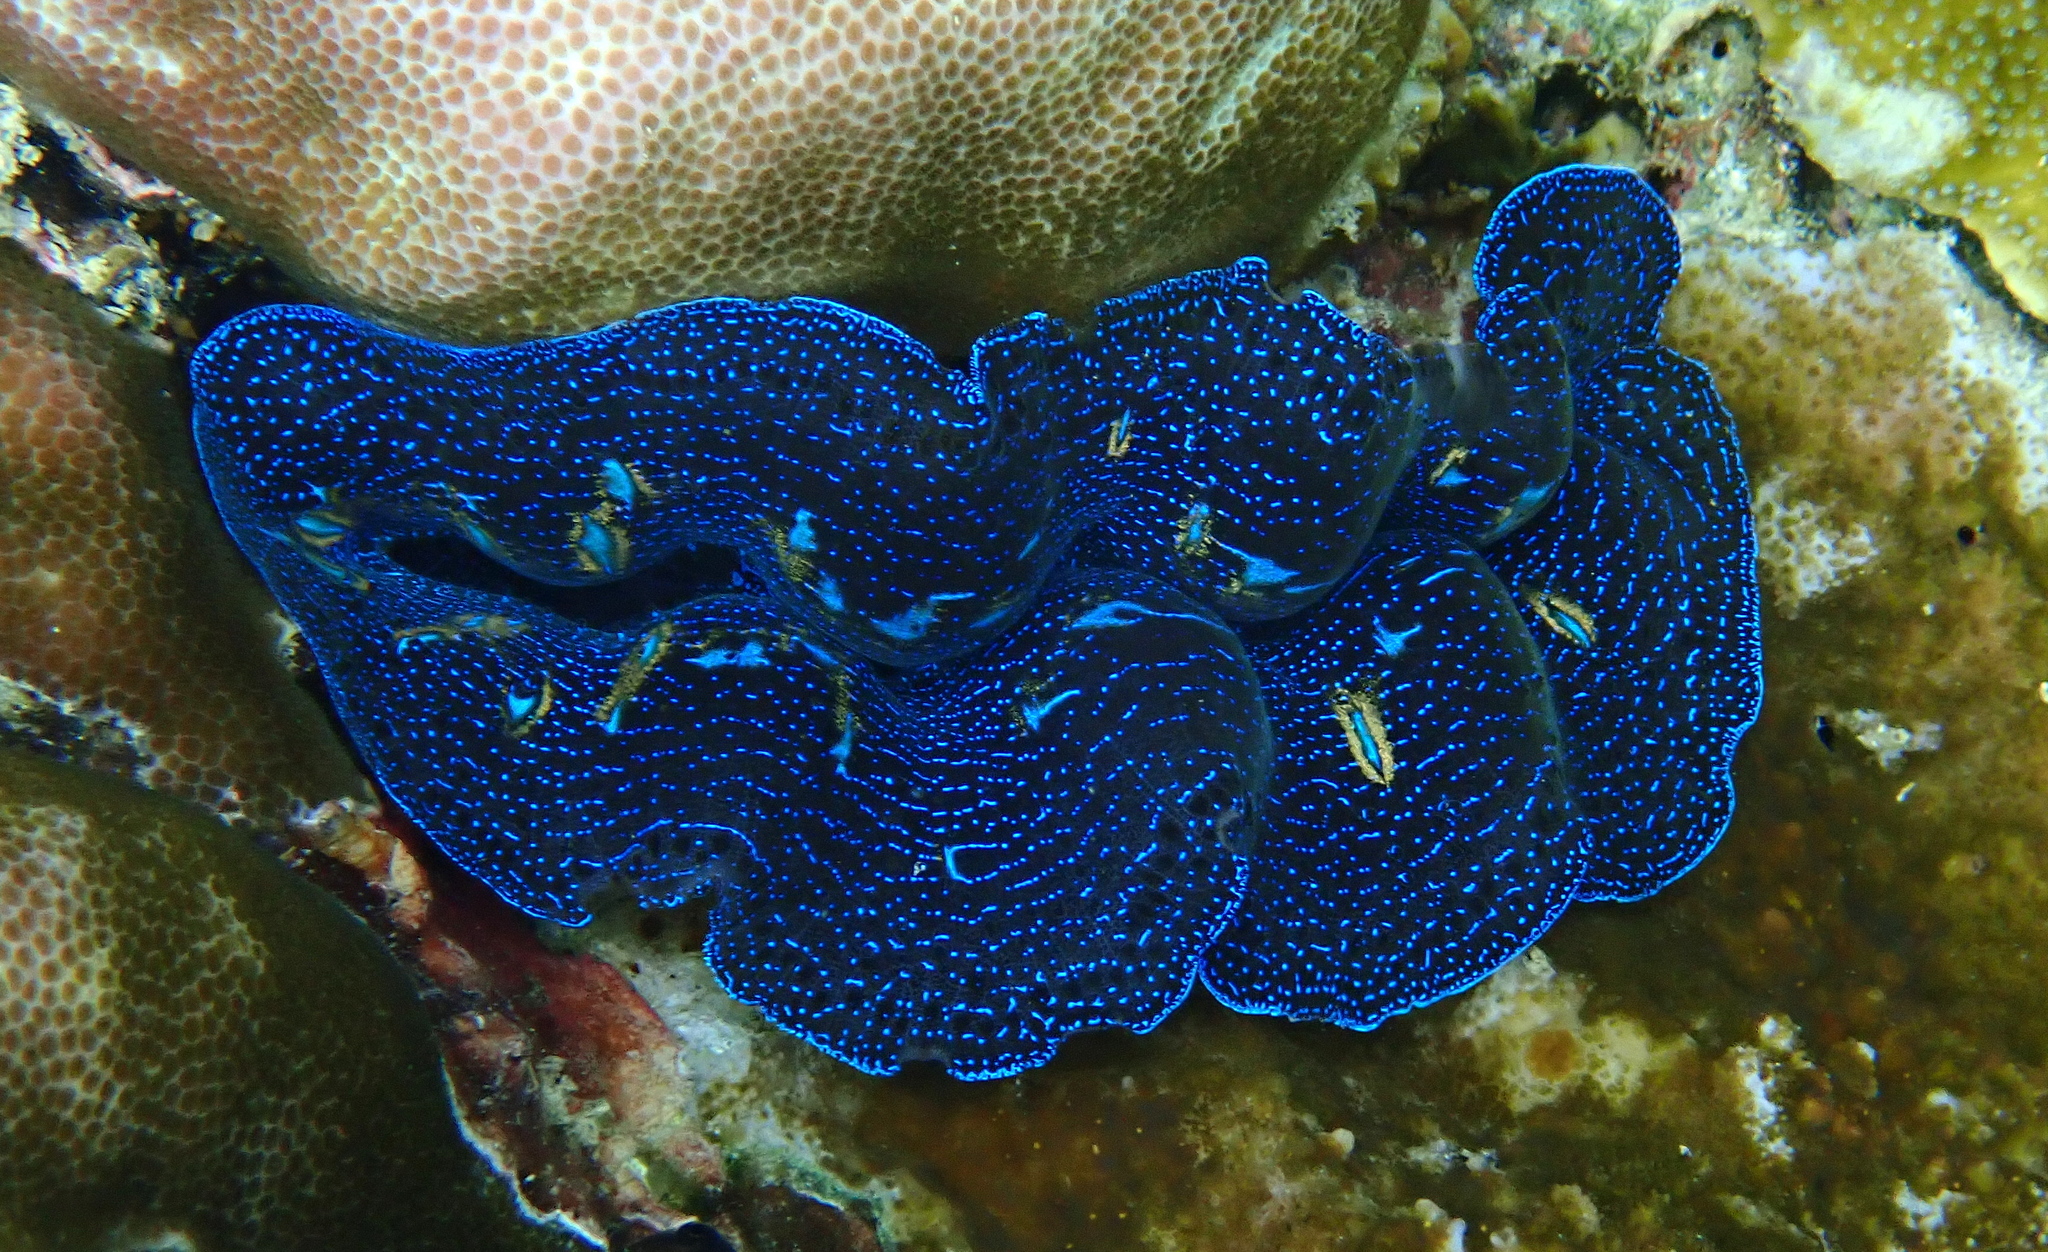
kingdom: Animalia
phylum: Mollusca
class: Bivalvia
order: Cardiida
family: Cardiidae
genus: Tridacna
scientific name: Tridacna crocea
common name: Boring clam
